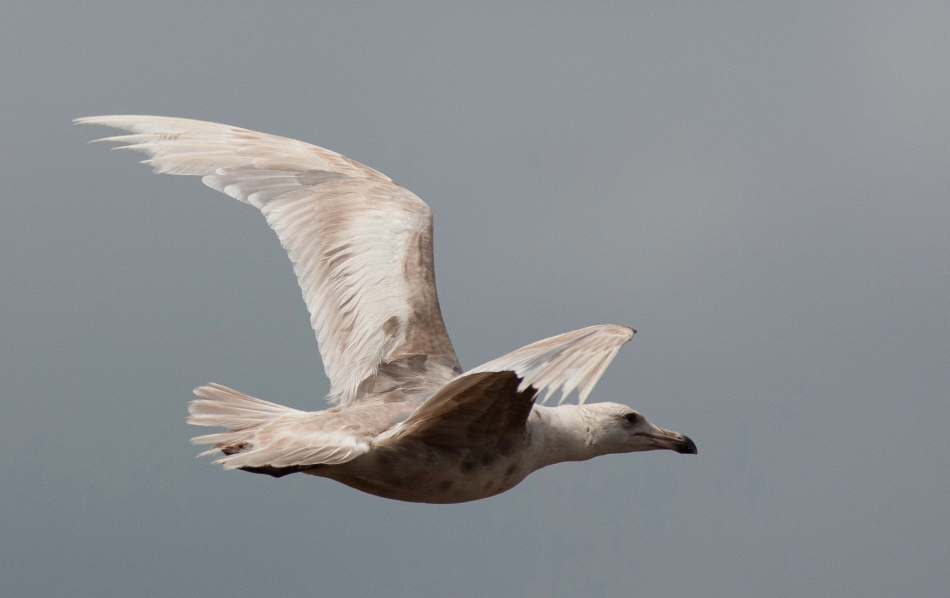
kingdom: Animalia
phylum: Chordata
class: Aves
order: Charadriiformes
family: Laridae
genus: Larus
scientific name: Larus glaucescens
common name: Glaucous-winged gull
